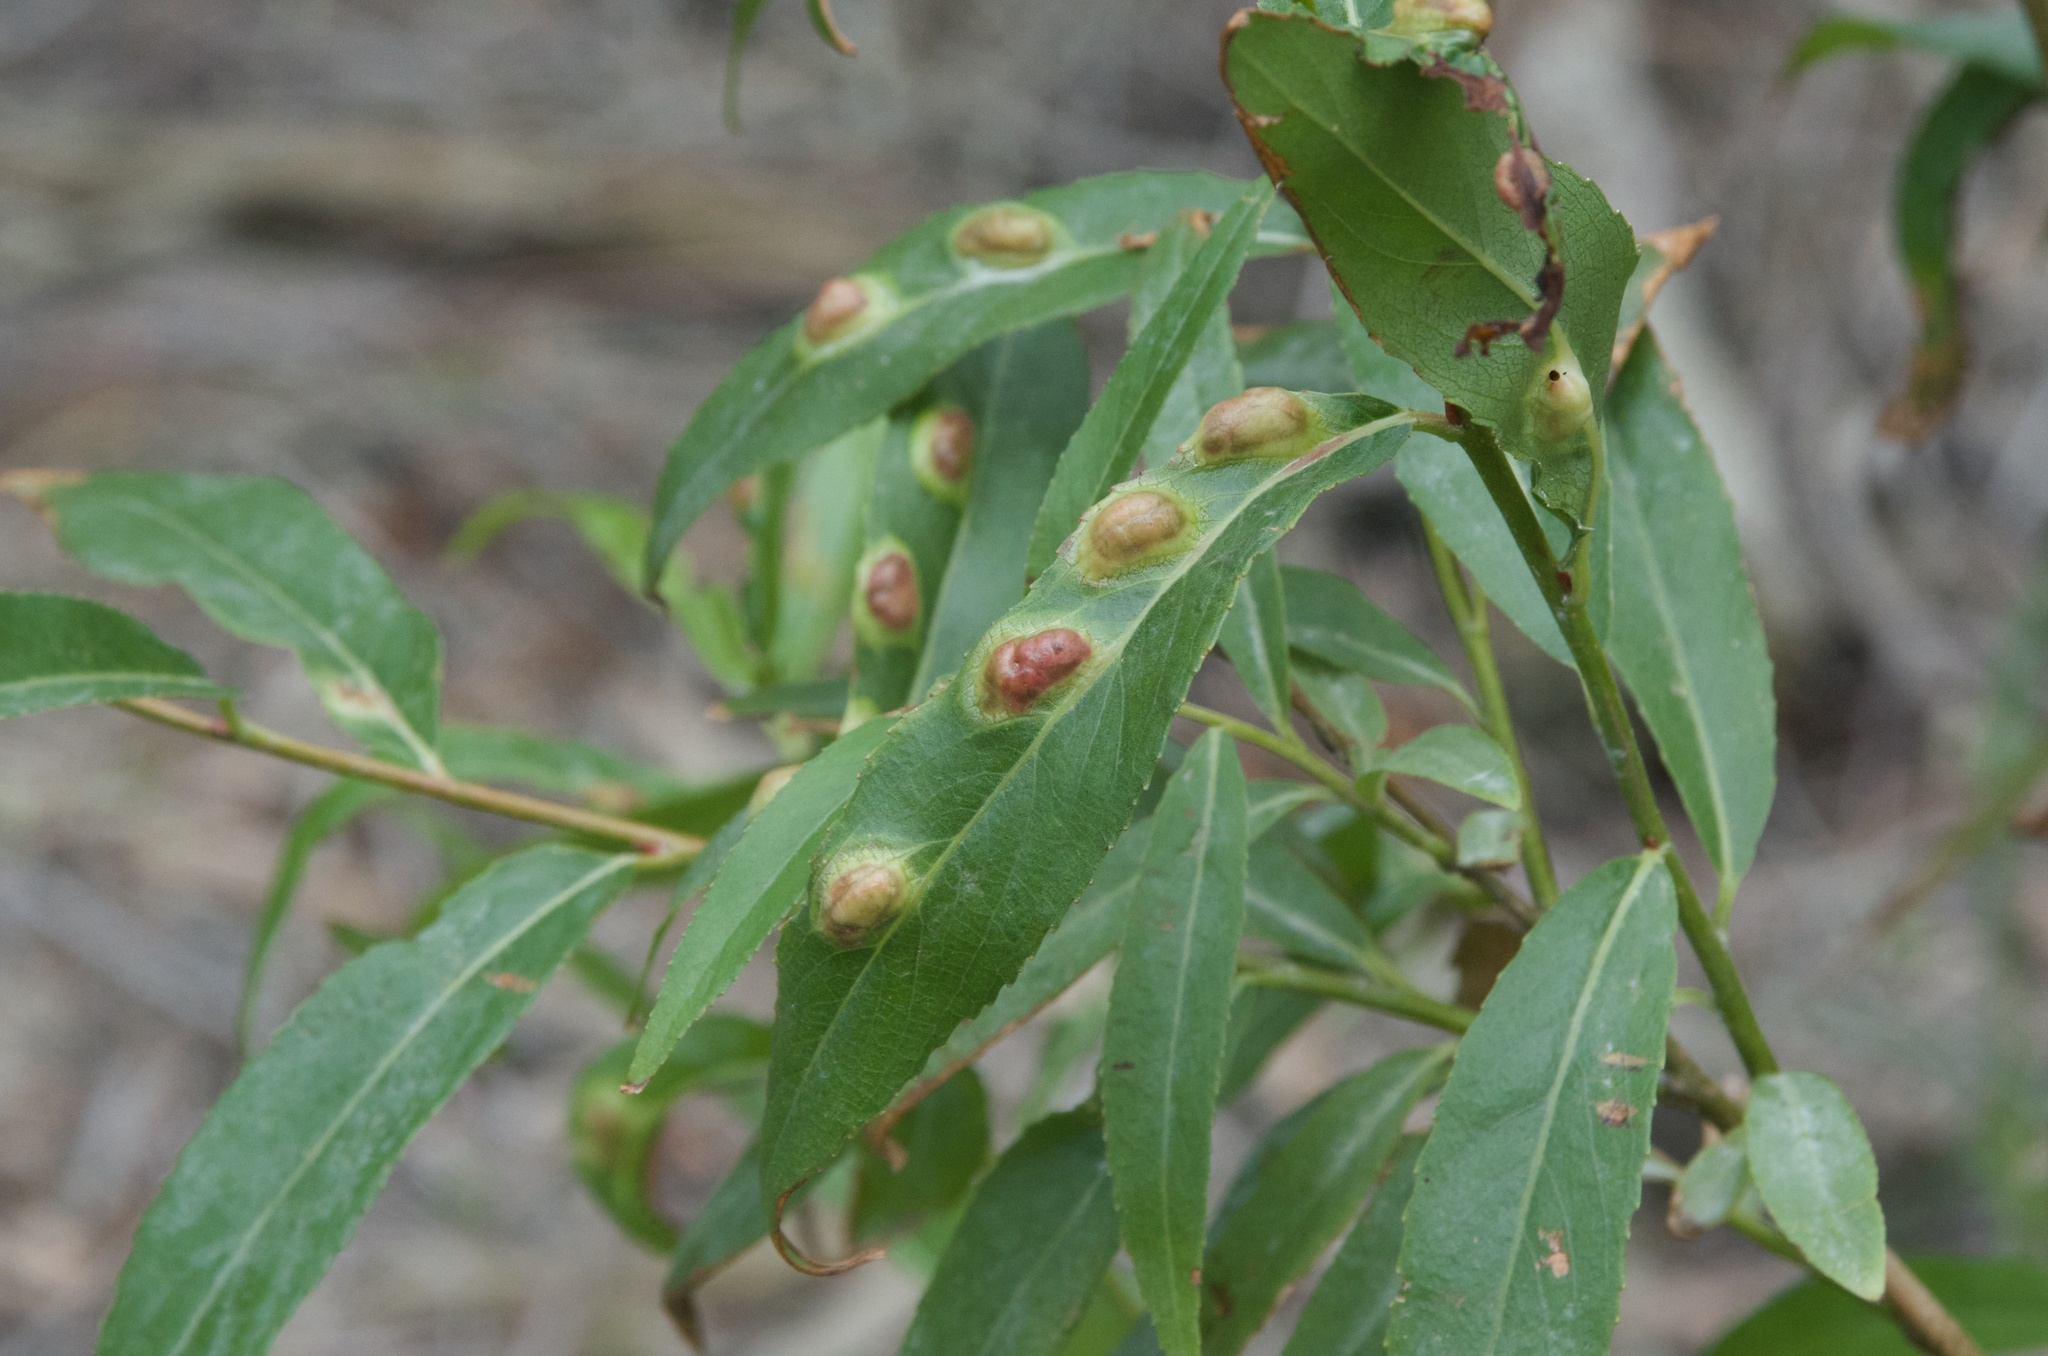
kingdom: Animalia
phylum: Arthropoda
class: Insecta
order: Hymenoptera
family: Tenthredinidae
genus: Pontania
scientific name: Pontania proxima
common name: Common sawfly
